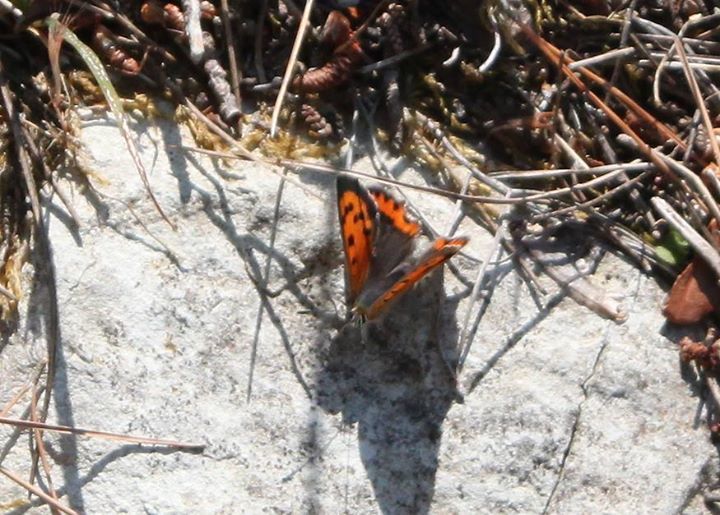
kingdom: Animalia
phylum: Arthropoda
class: Insecta
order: Lepidoptera
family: Lycaenidae
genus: Lycaena
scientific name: Lycaena phlaeas
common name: Small copper
